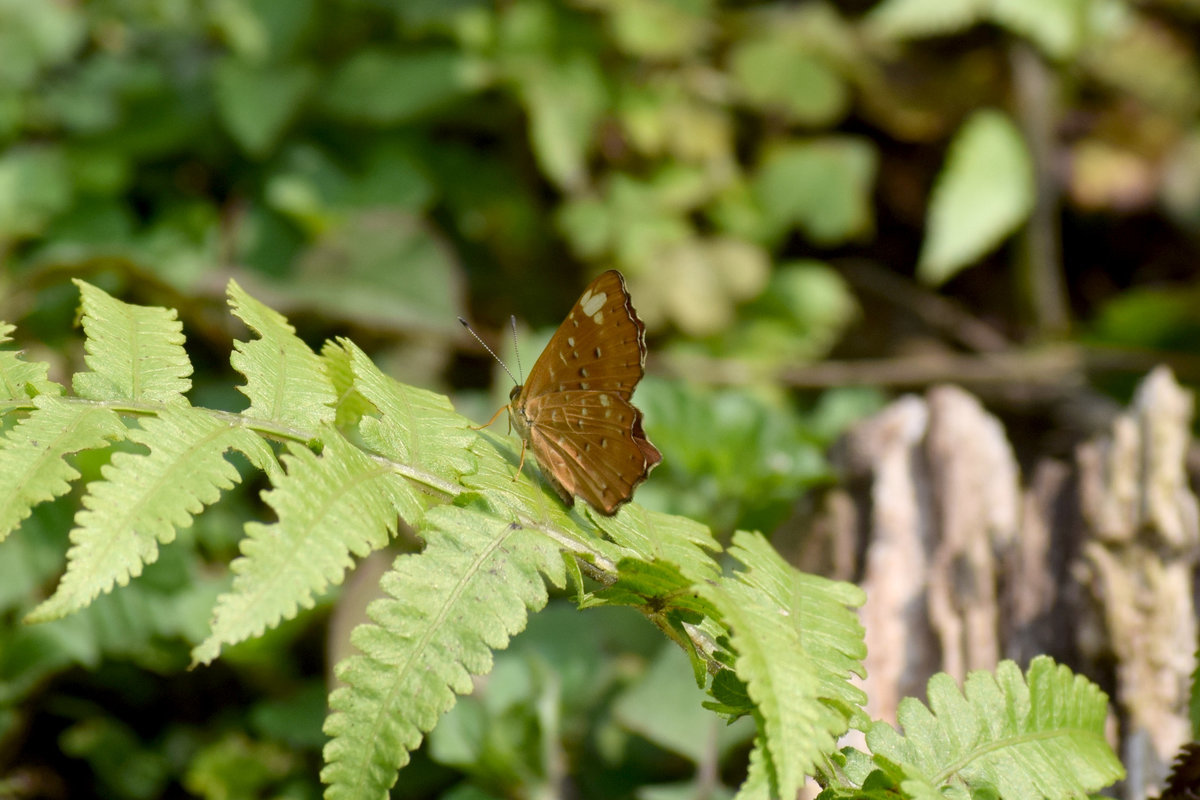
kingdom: Animalia
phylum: Arthropoda
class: Insecta
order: Lepidoptera
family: Riodinidae
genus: Zemeros
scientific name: Zemeros flegyas
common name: Punchinello
